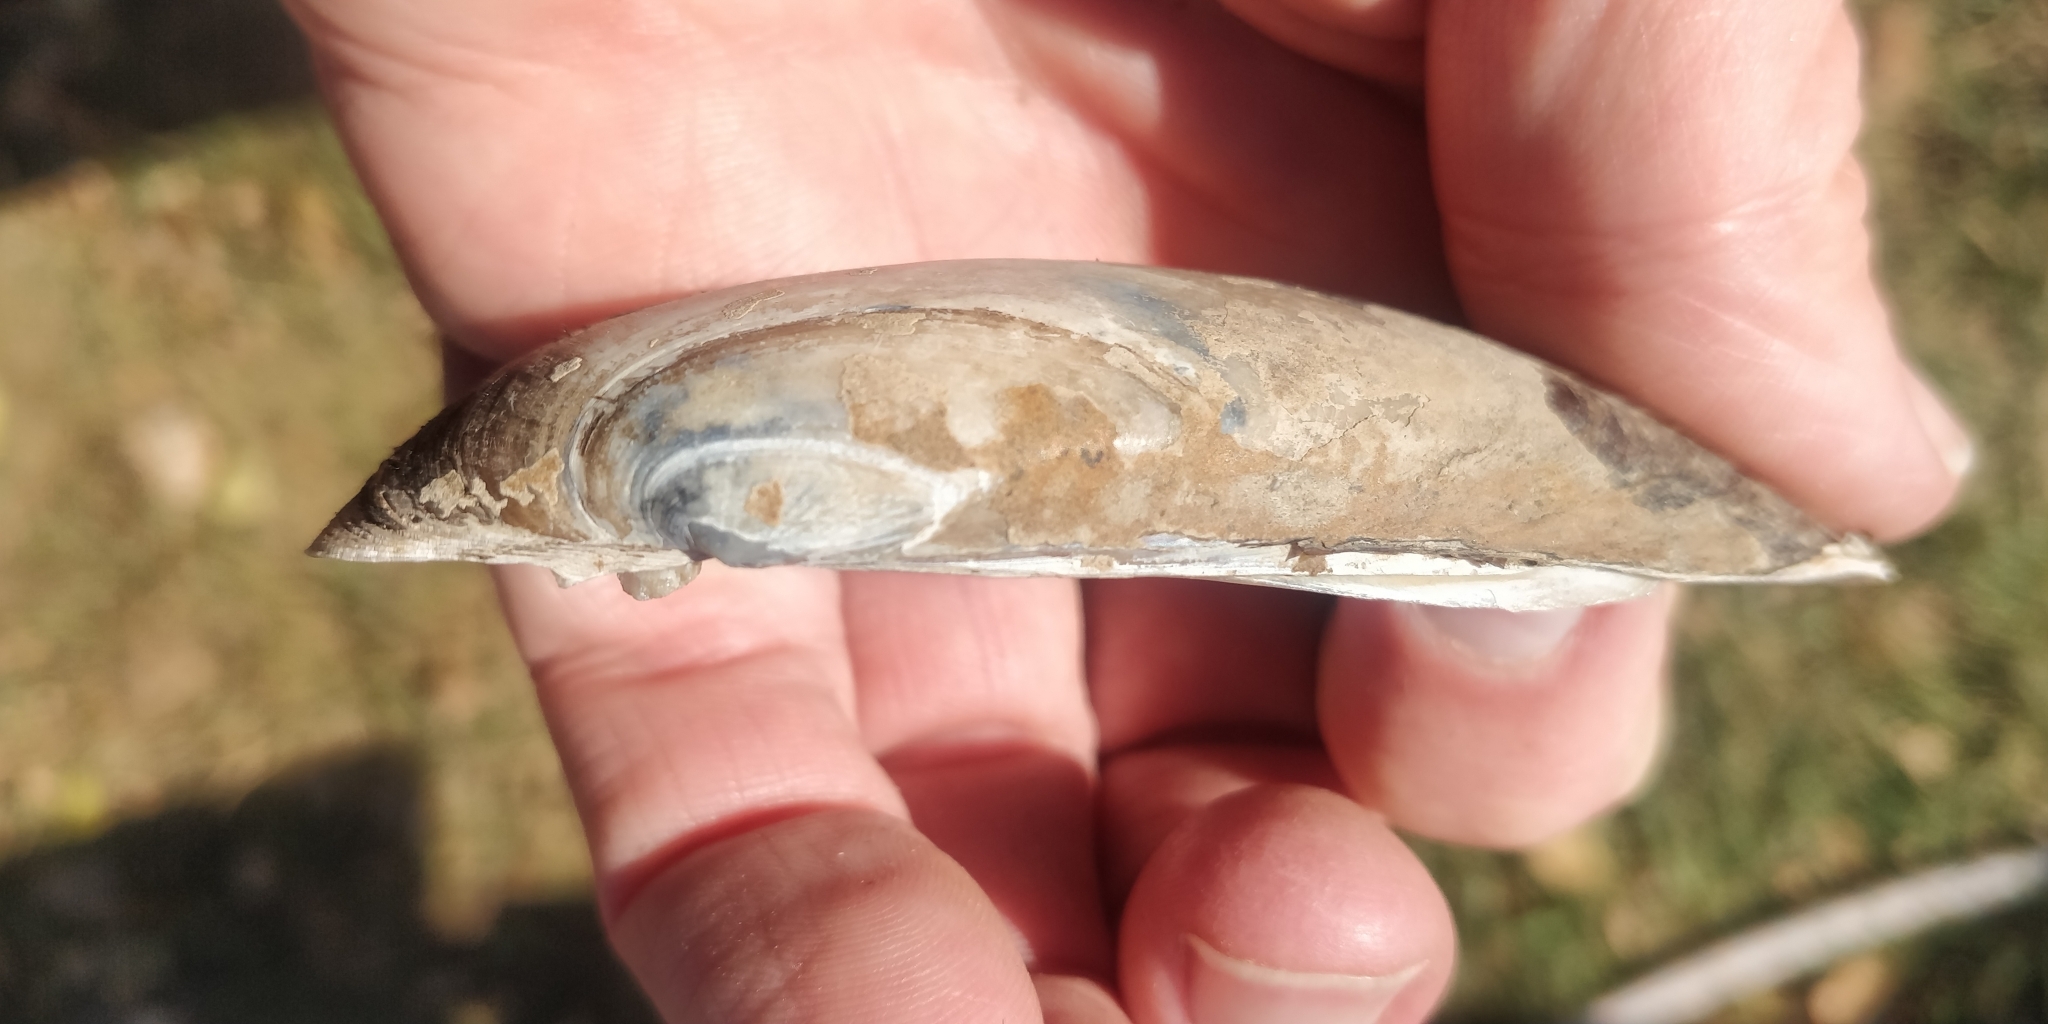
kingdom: Animalia
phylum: Mollusca
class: Bivalvia
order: Unionida
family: Unionidae
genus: Lampsilis
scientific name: Lampsilis teres
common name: Yellow sandshell
